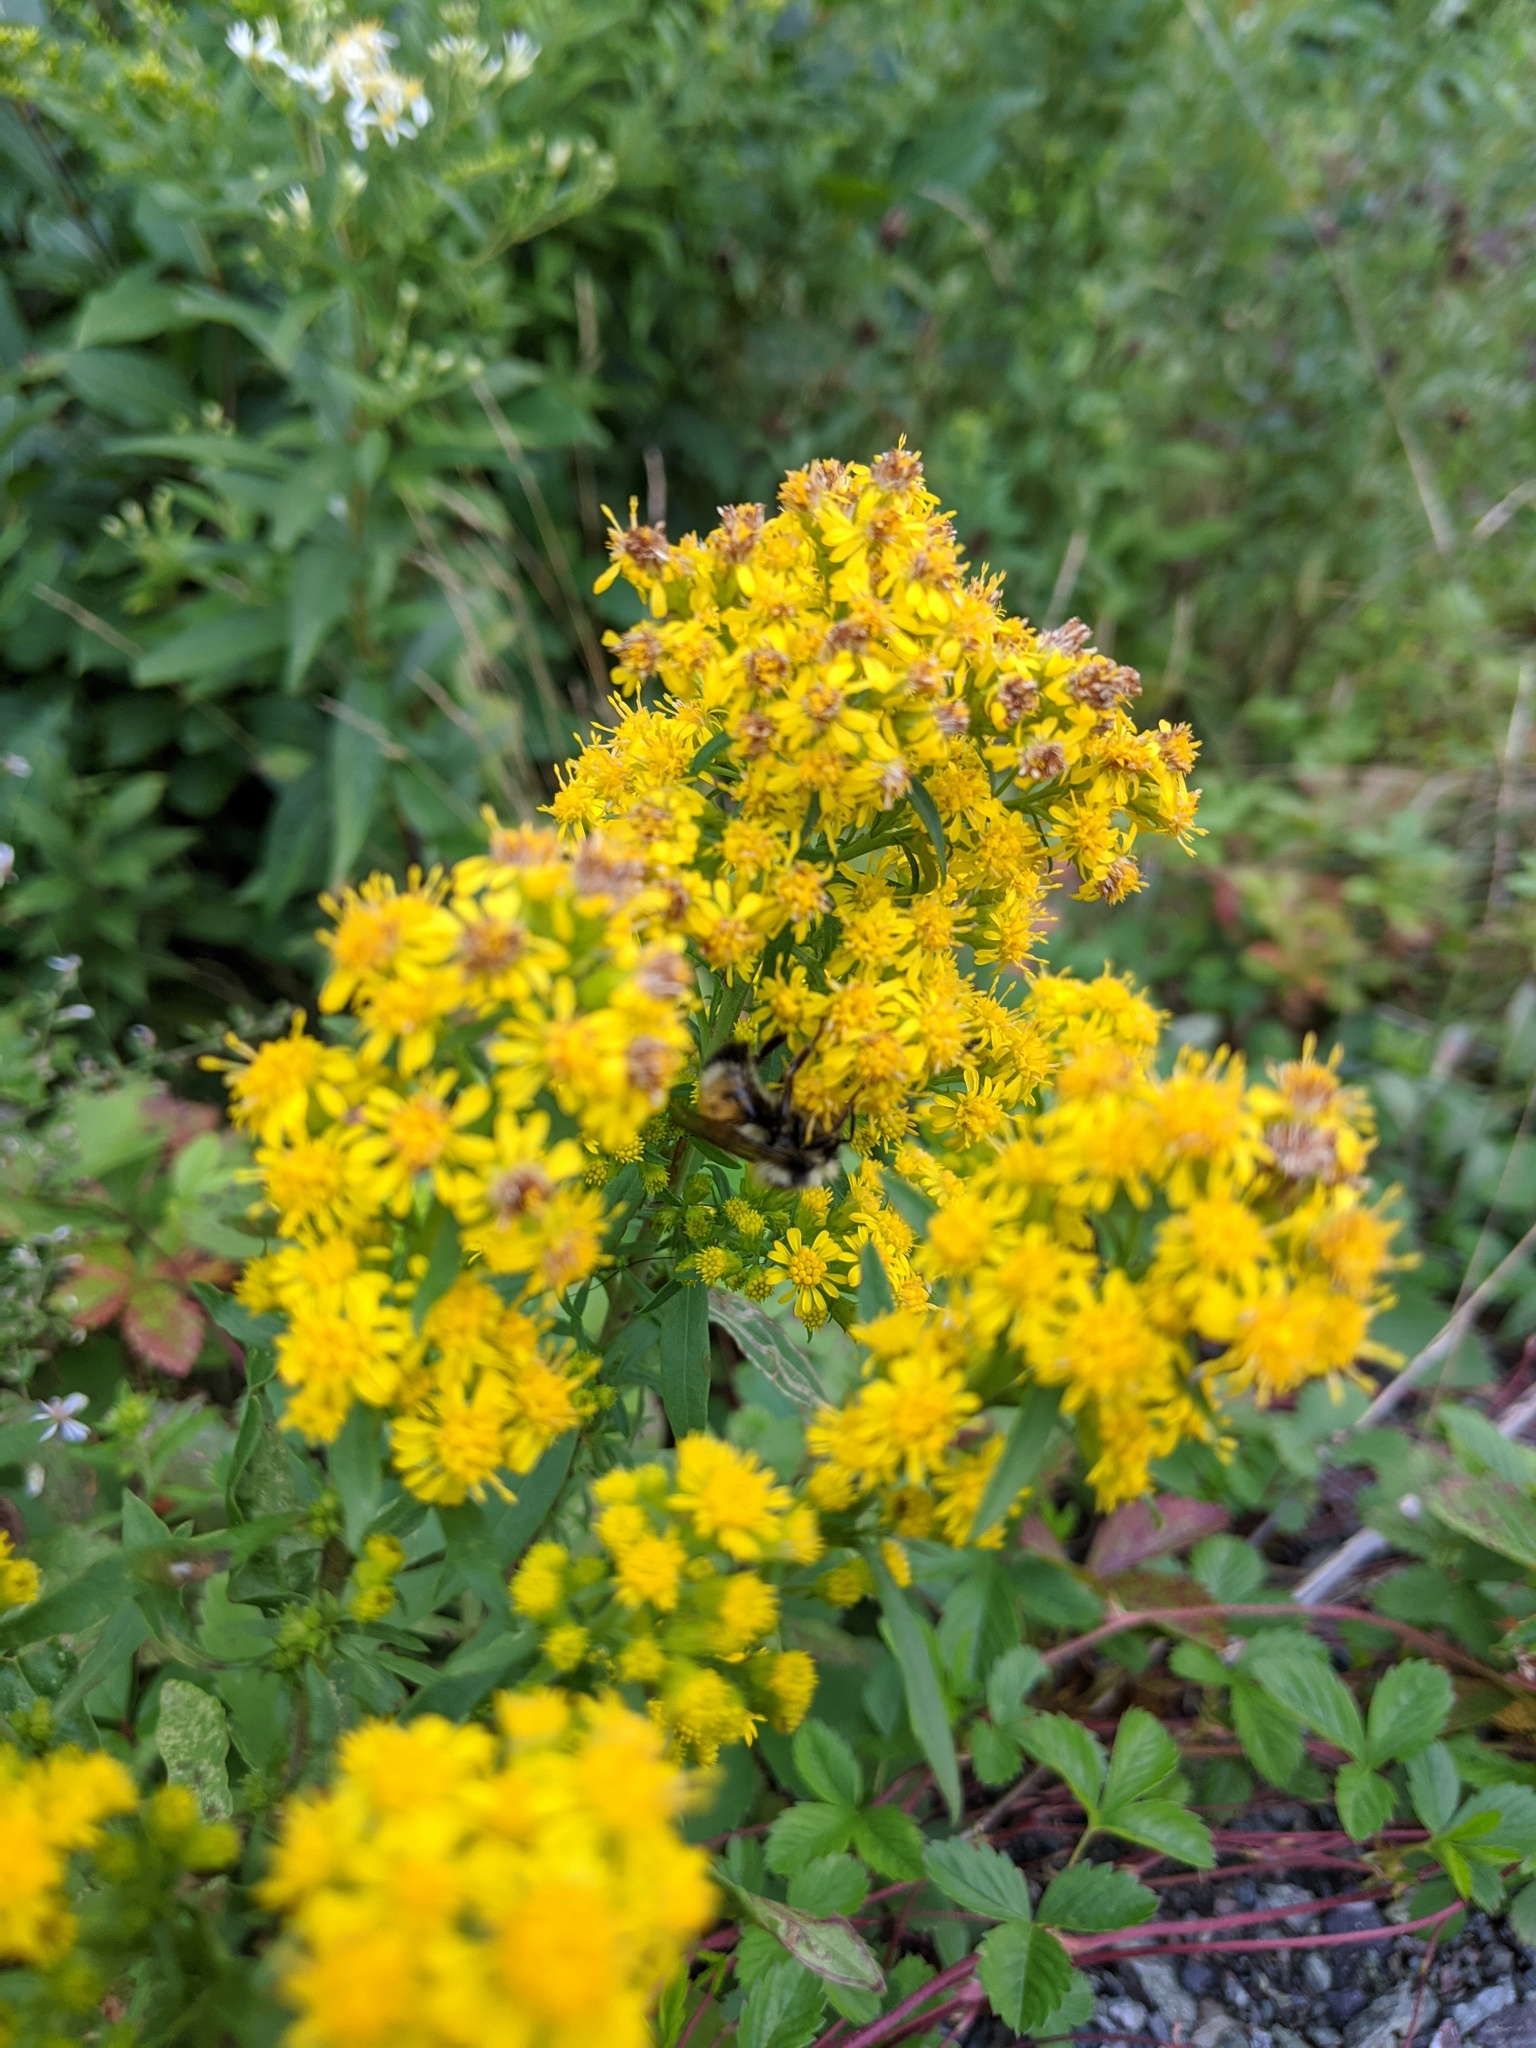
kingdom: Plantae
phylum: Tracheophyta
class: Magnoliopsida
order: Asterales
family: Asteraceae
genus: Jacobaea
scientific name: Jacobaea vulgaris
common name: Stinking willie
